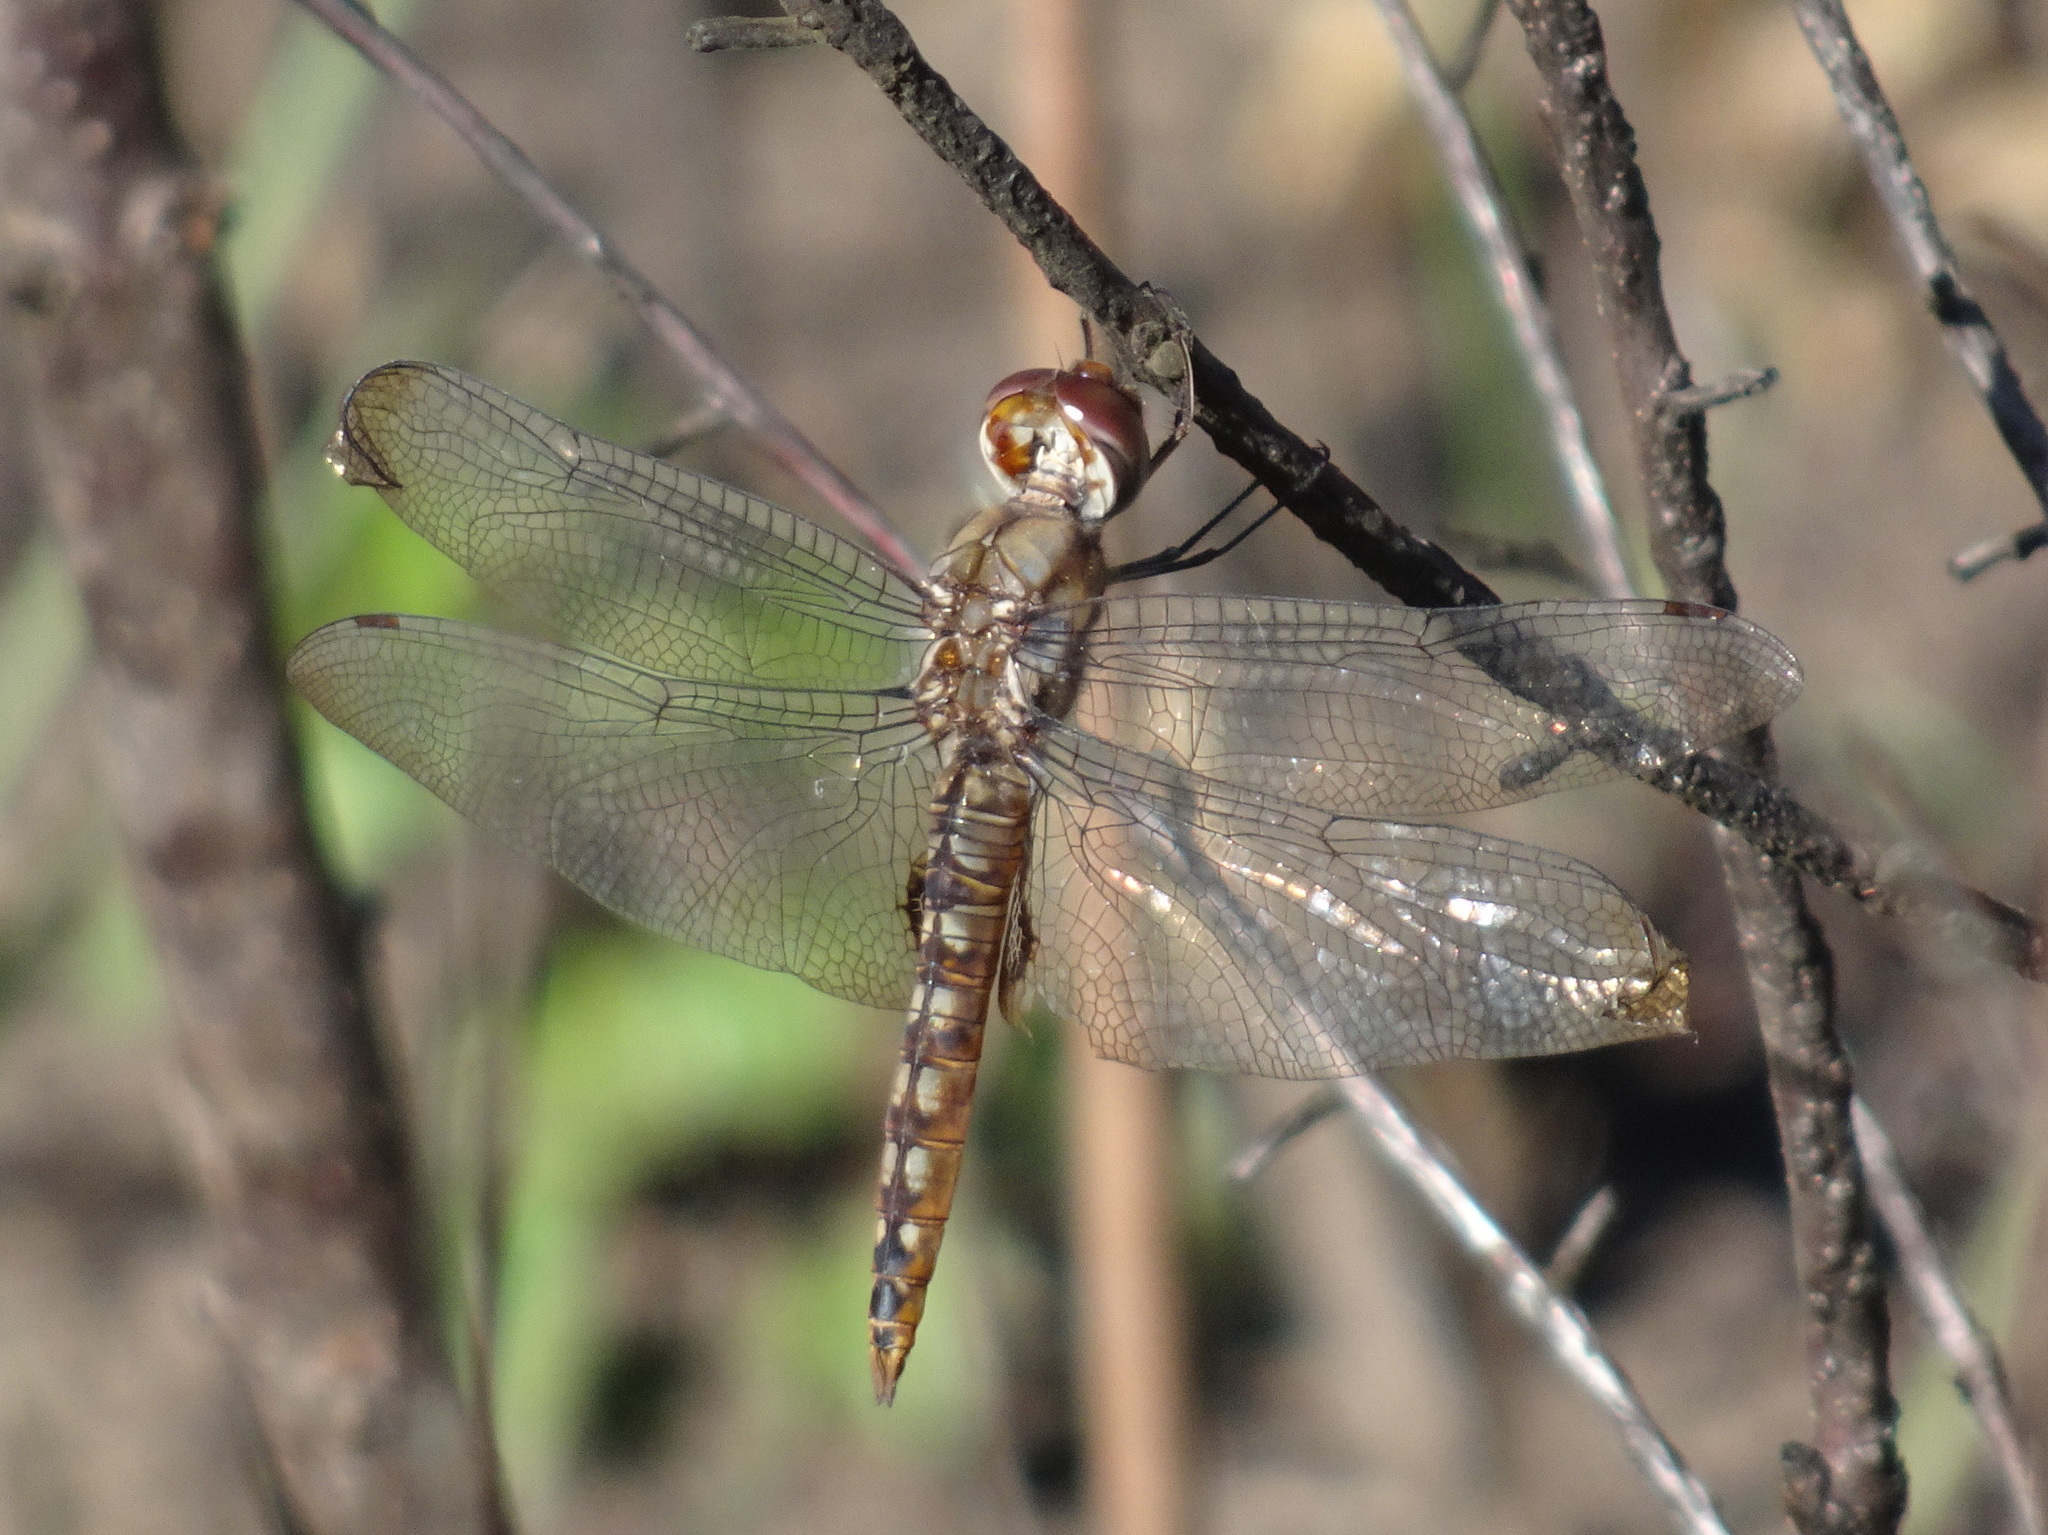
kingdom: Animalia
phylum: Arthropoda
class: Insecta
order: Odonata
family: Libellulidae
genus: Pantala
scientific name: Pantala hymenaea
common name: Spot-winged glider
